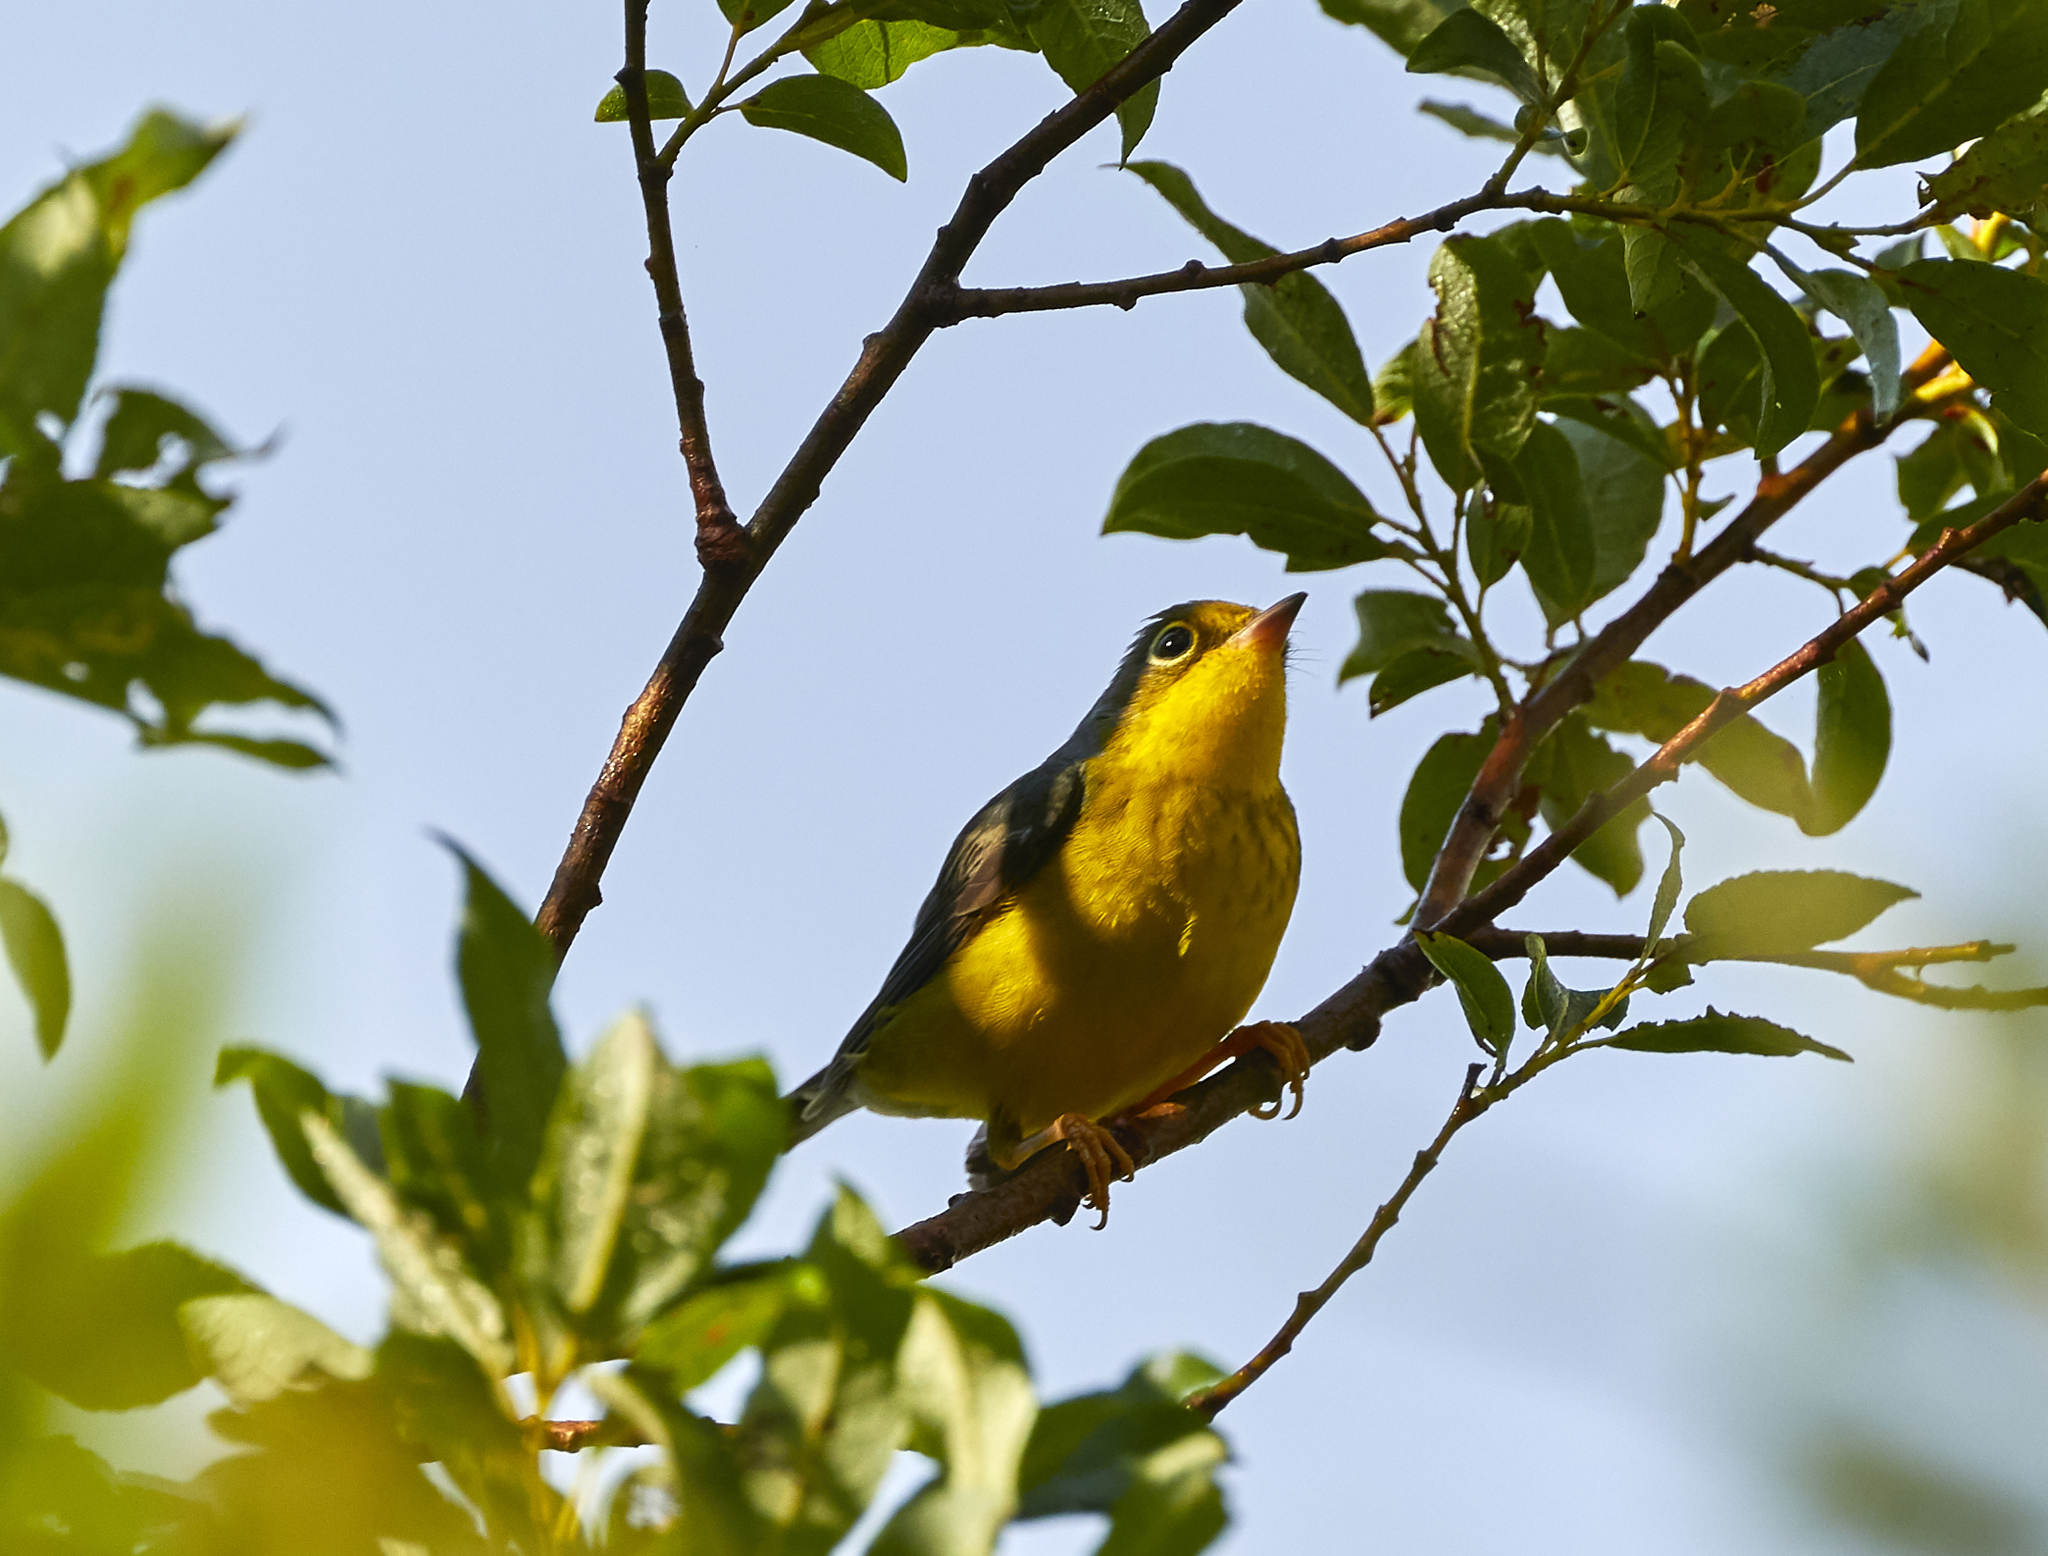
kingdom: Animalia
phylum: Chordata
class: Aves
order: Passeriformes
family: Parulidae
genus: Cardellina
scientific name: Cardellina canadensis
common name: Canada warbler
